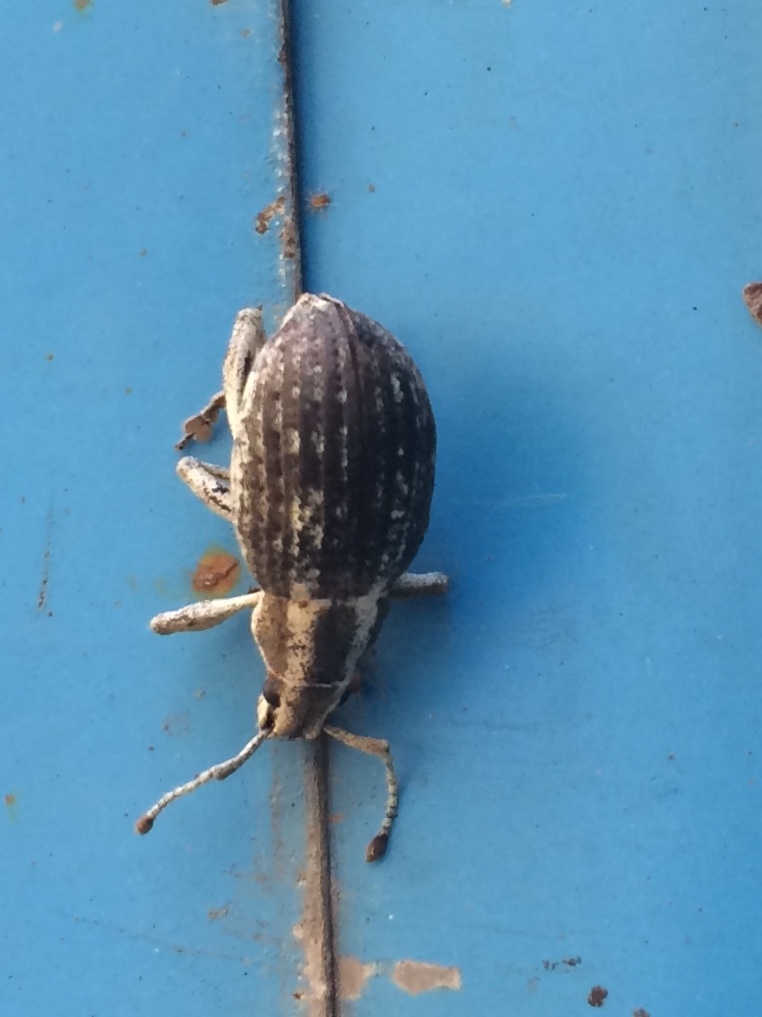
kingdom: Animalia
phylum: Arthropoda
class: Insecta
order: Coleoptera
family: Curculionidae
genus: Parapionus
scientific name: Parapionus varicolor
